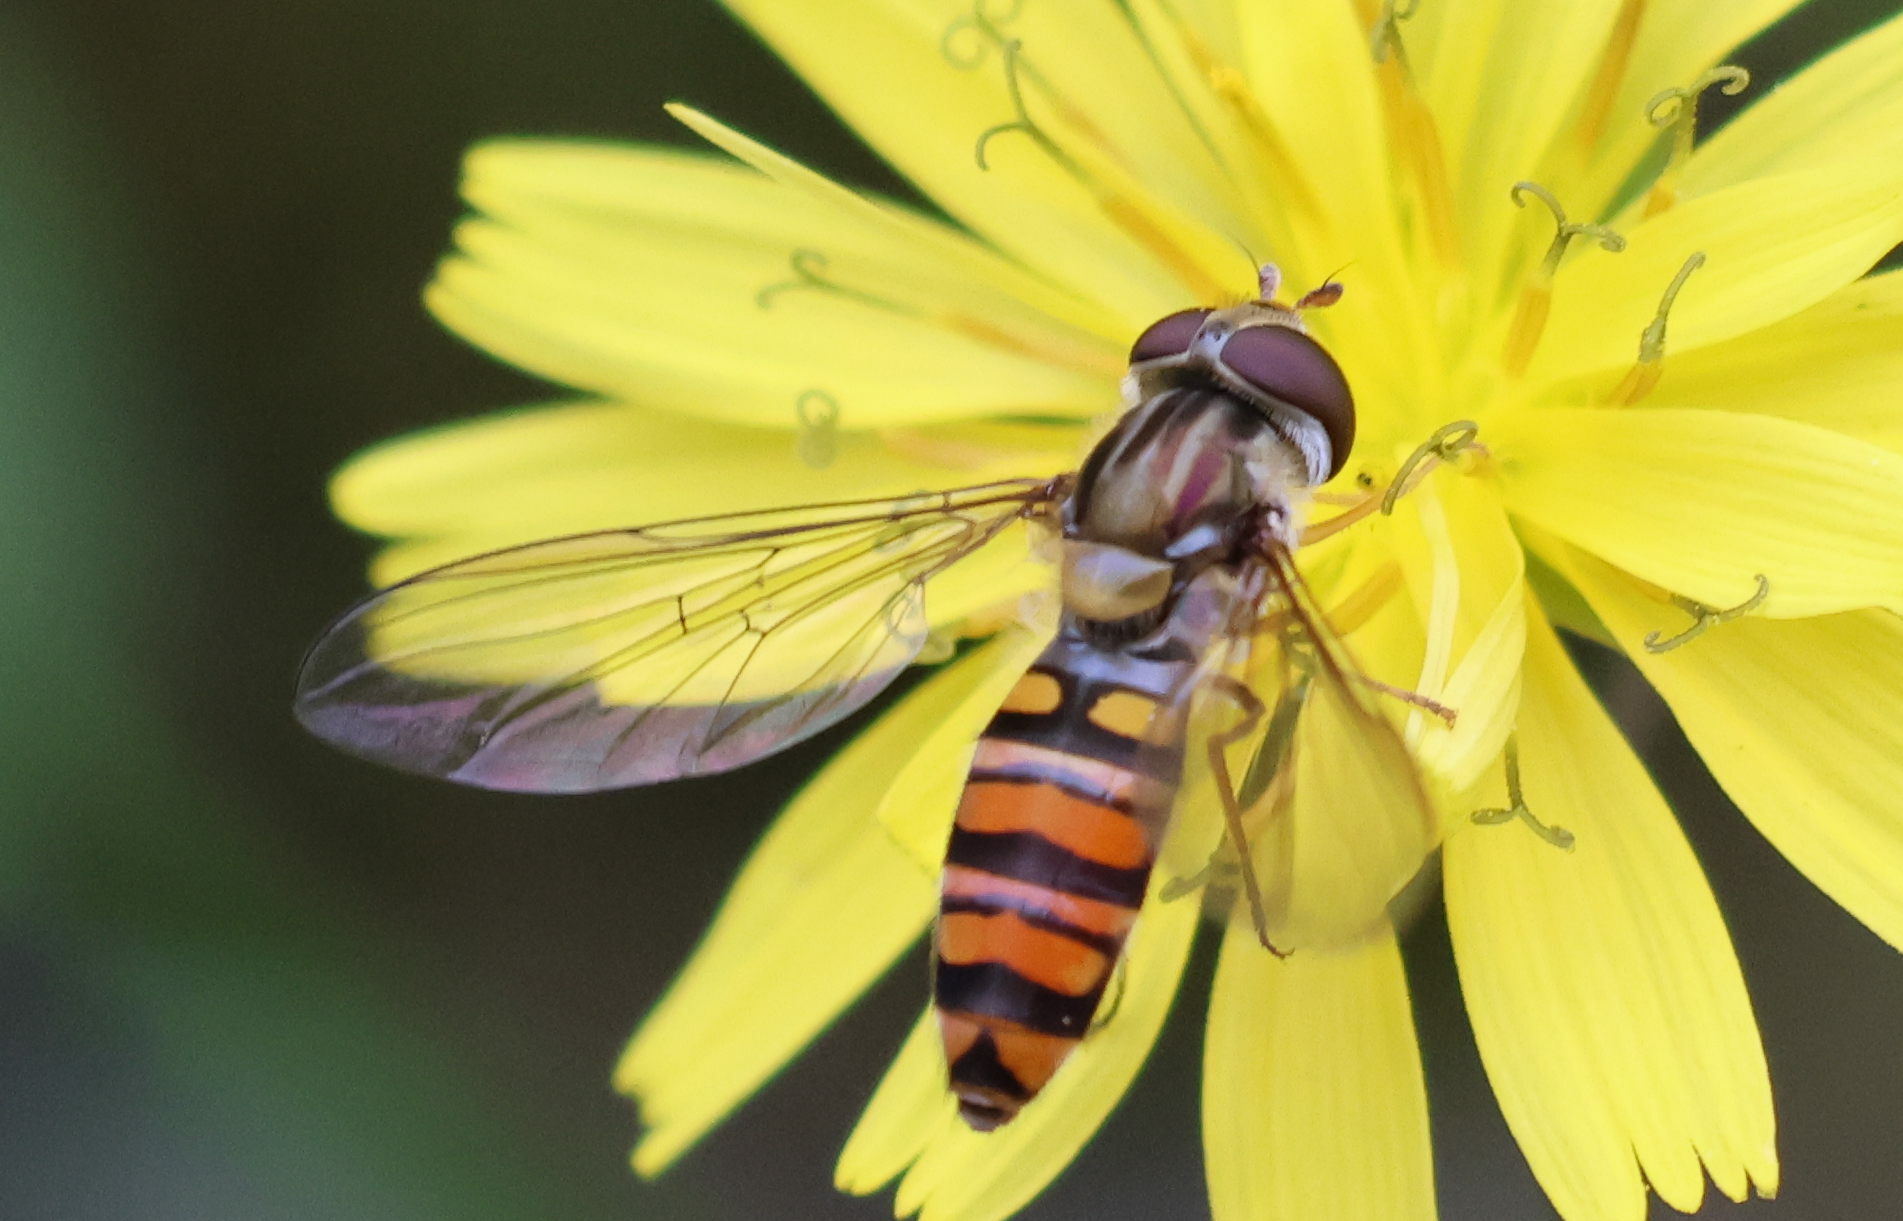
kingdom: Animalia
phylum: Arthropoda
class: Insecta
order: Diptera
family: Syrphidae
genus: Episyrphus
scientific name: Episyrphus balteatus
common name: Marmalade hoverfly
